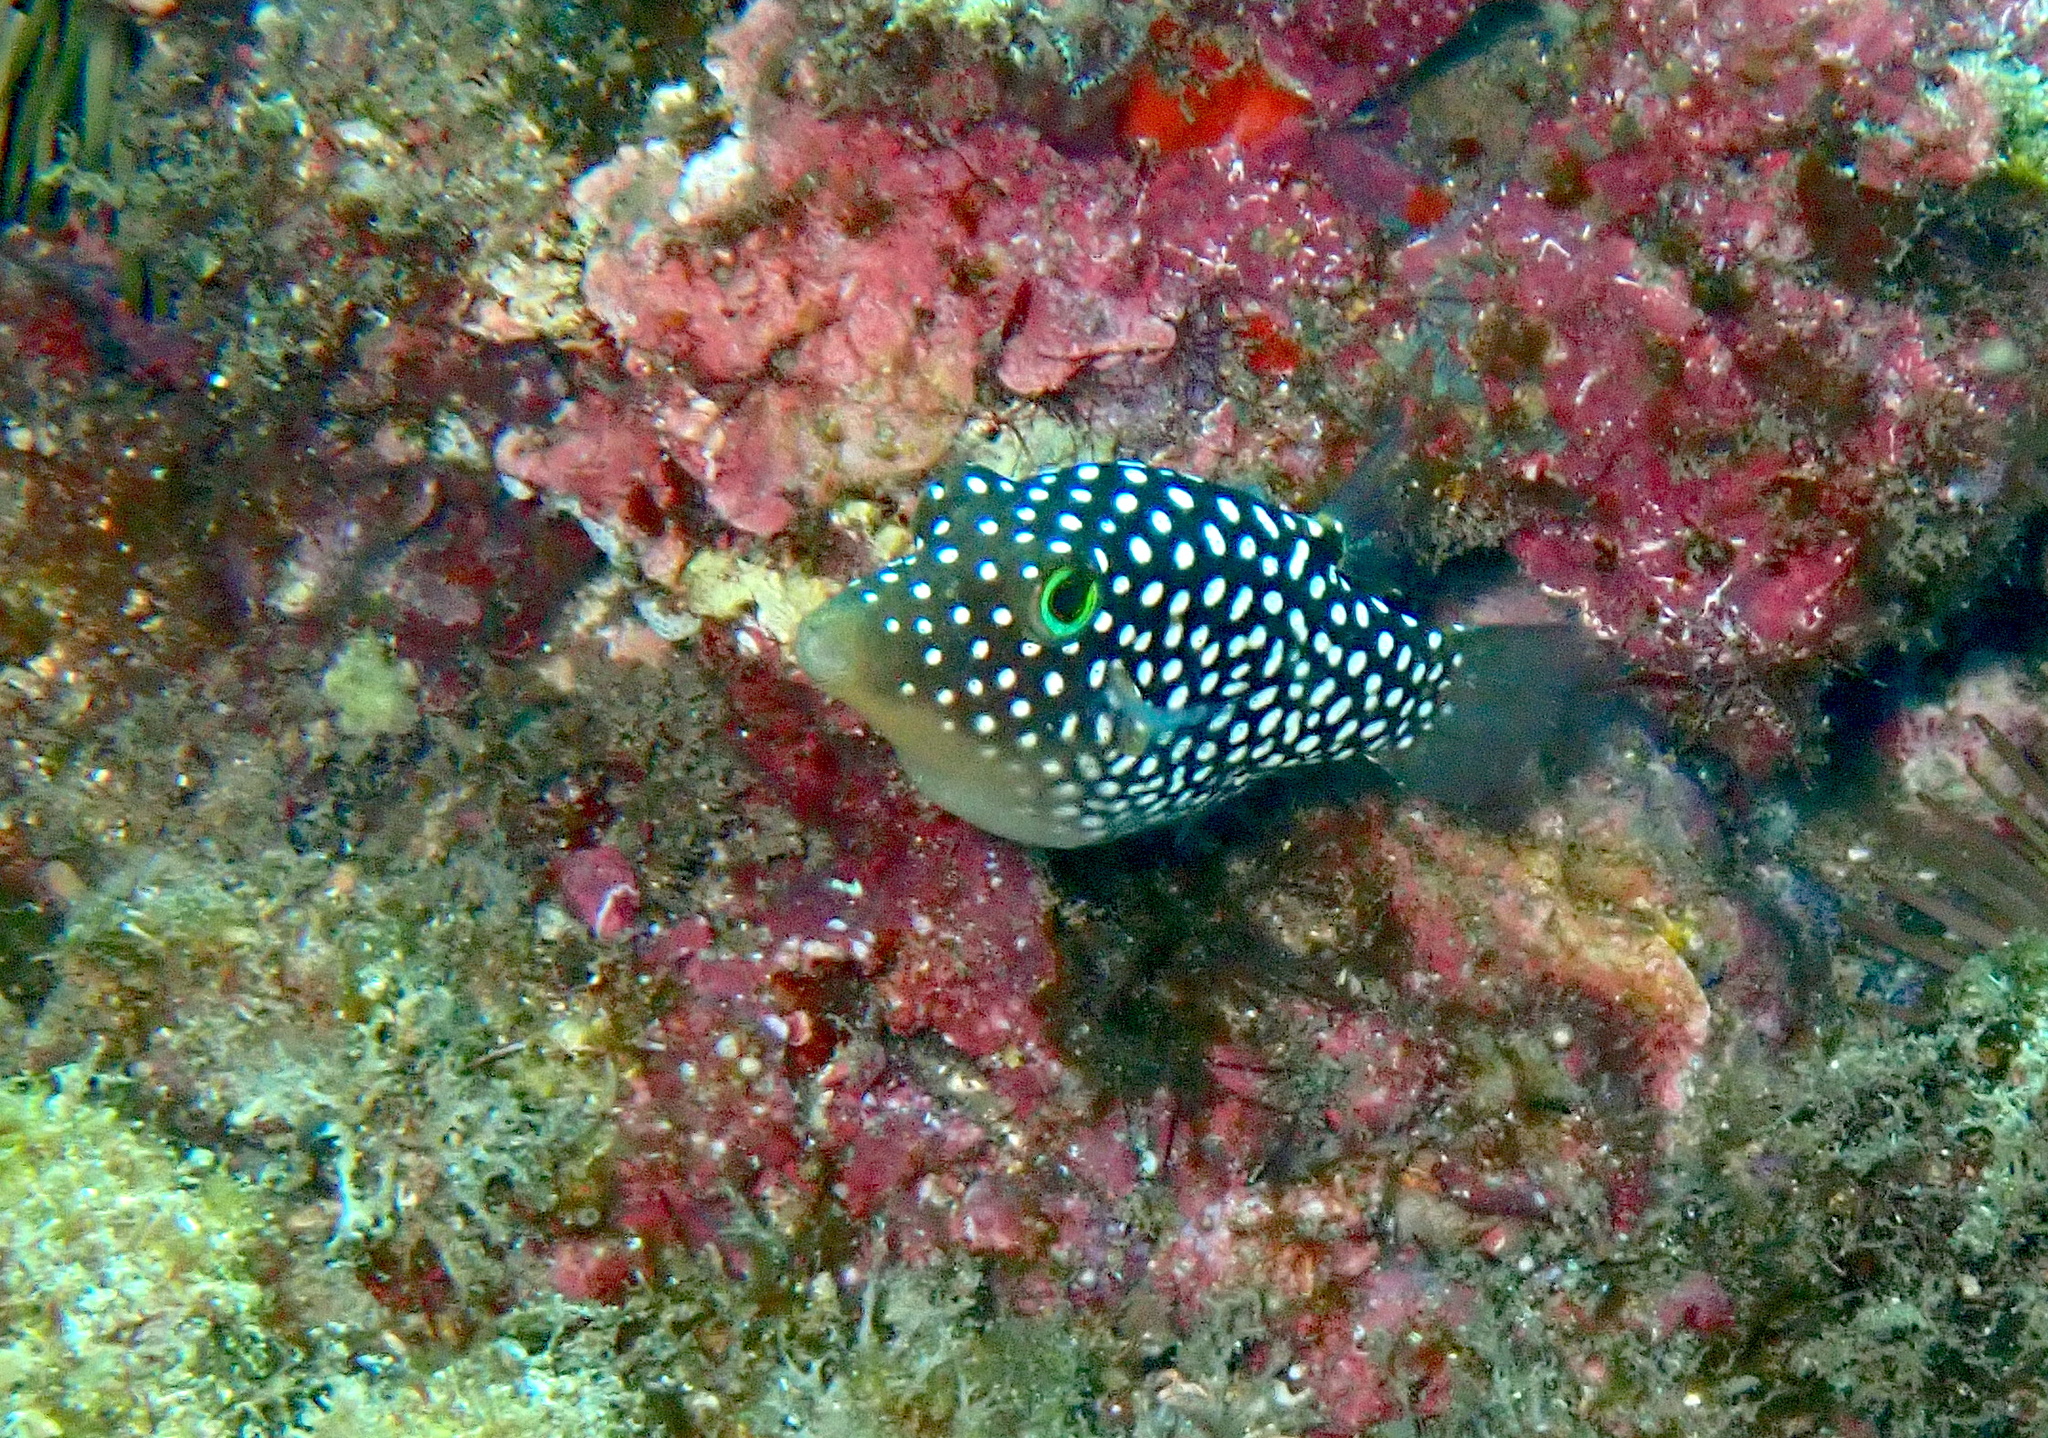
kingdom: Animalia
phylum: Chordata
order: Tetraodontiformes
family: Tetraodontidae
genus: Canthigaster
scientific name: Canthigaster jactator
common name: Hawaiian whitespotted toby
